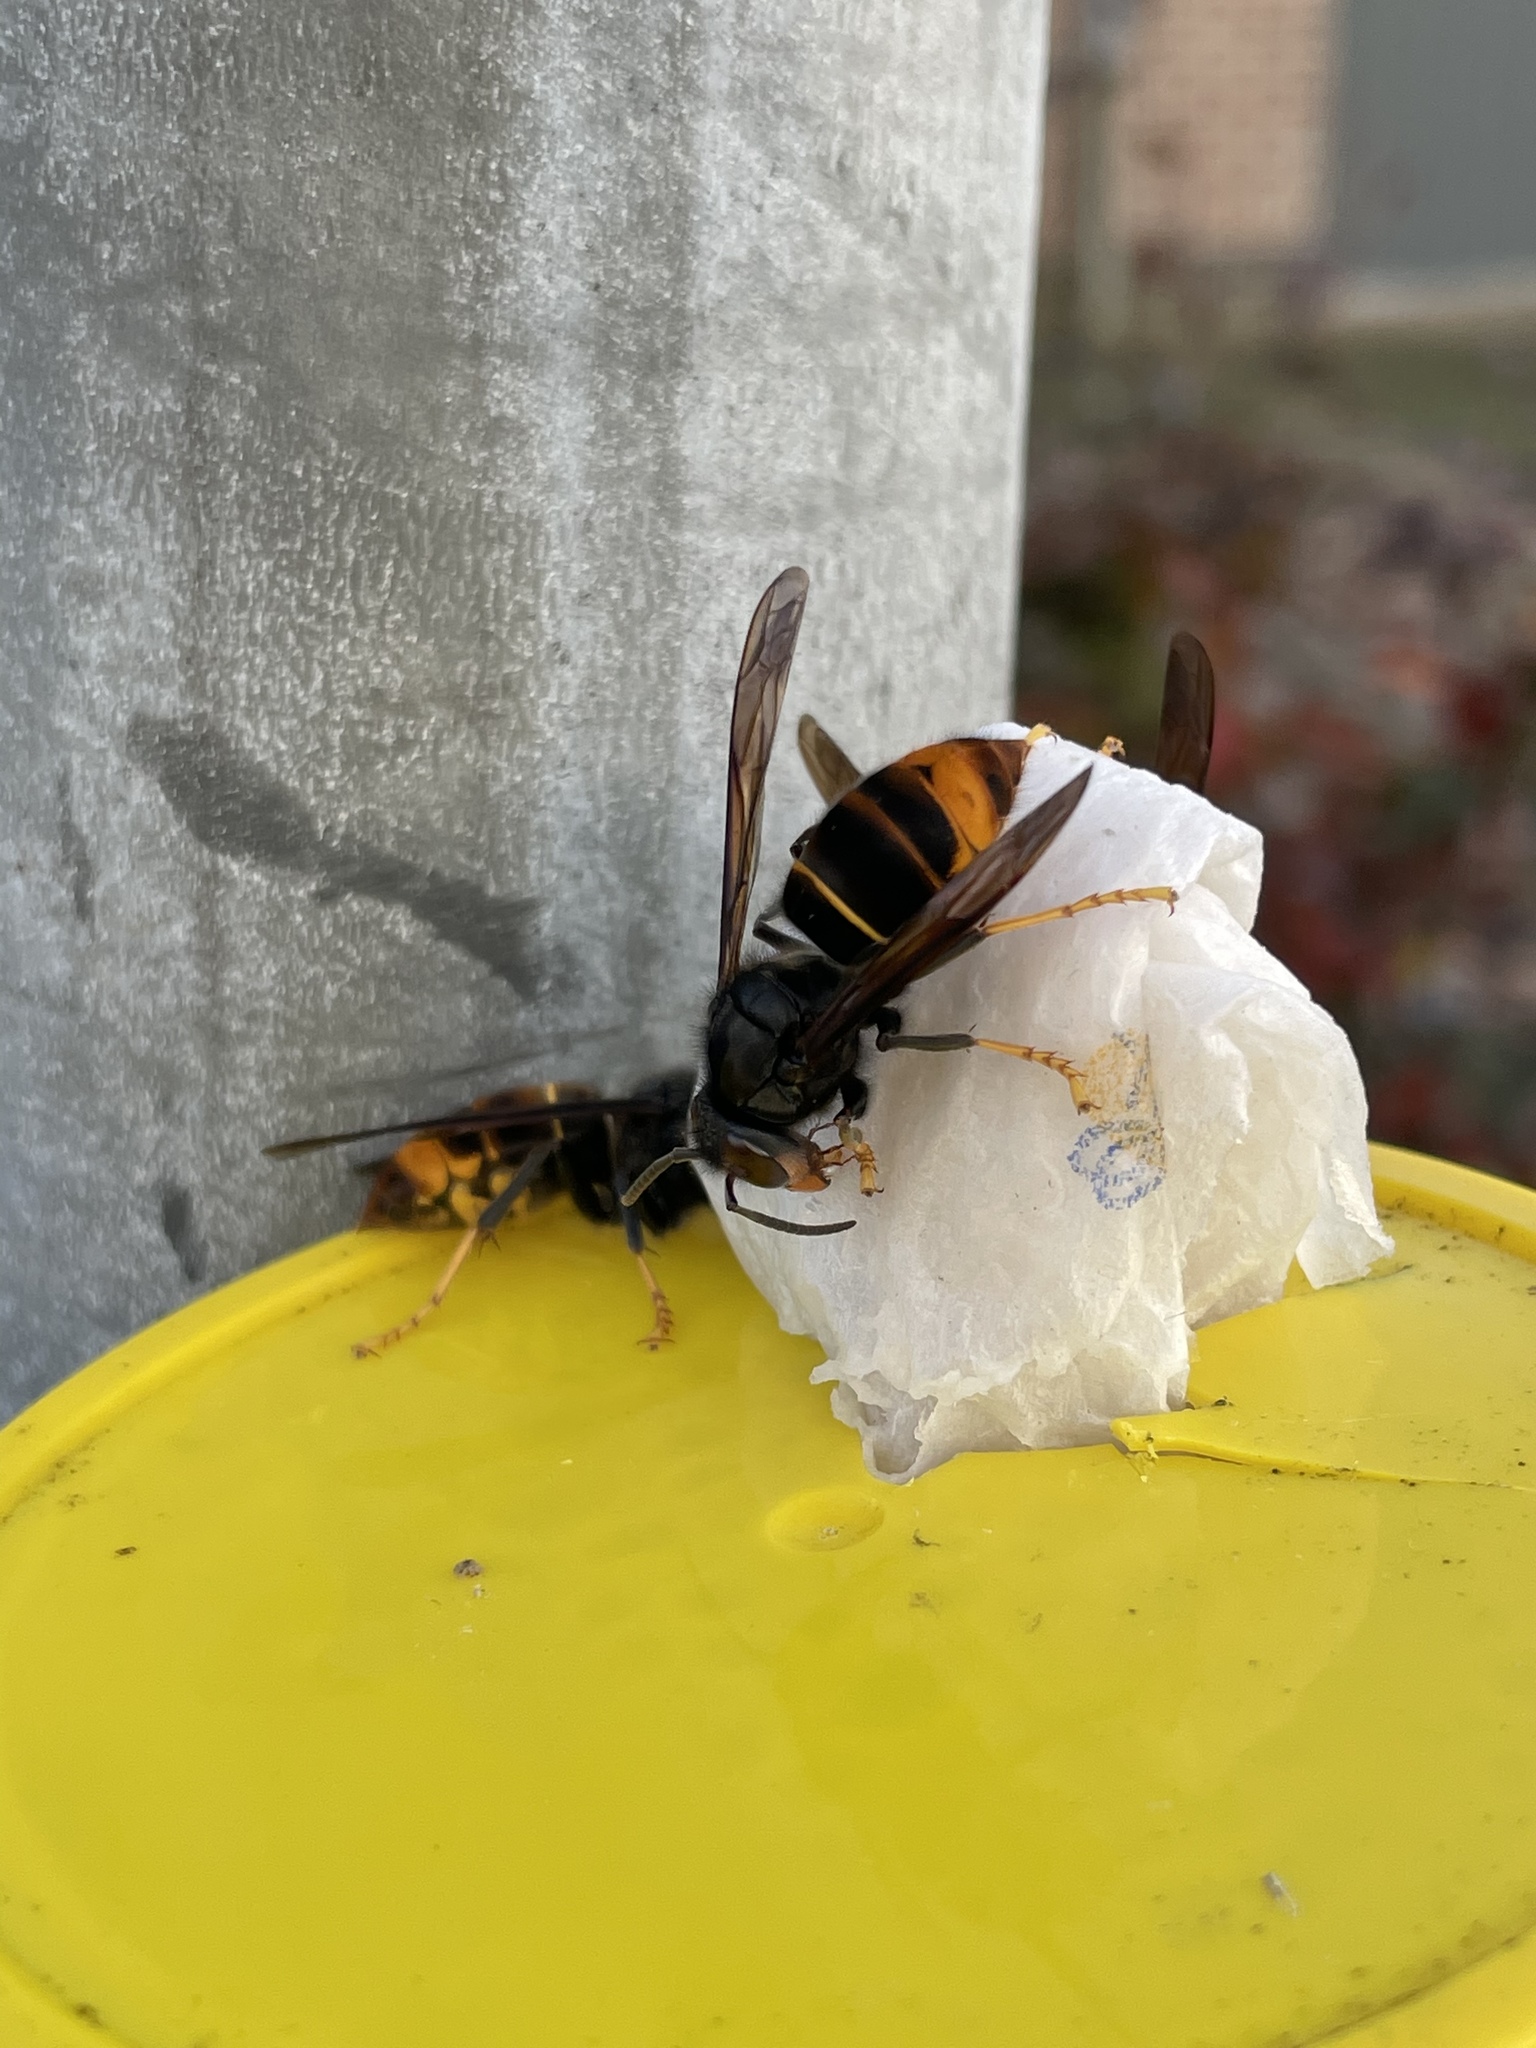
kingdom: Animalia
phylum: Arthropoda
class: Insecta
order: Hymenoptera
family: Vespidae
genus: Vespa
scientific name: Vespa velutina
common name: Asian hornet
